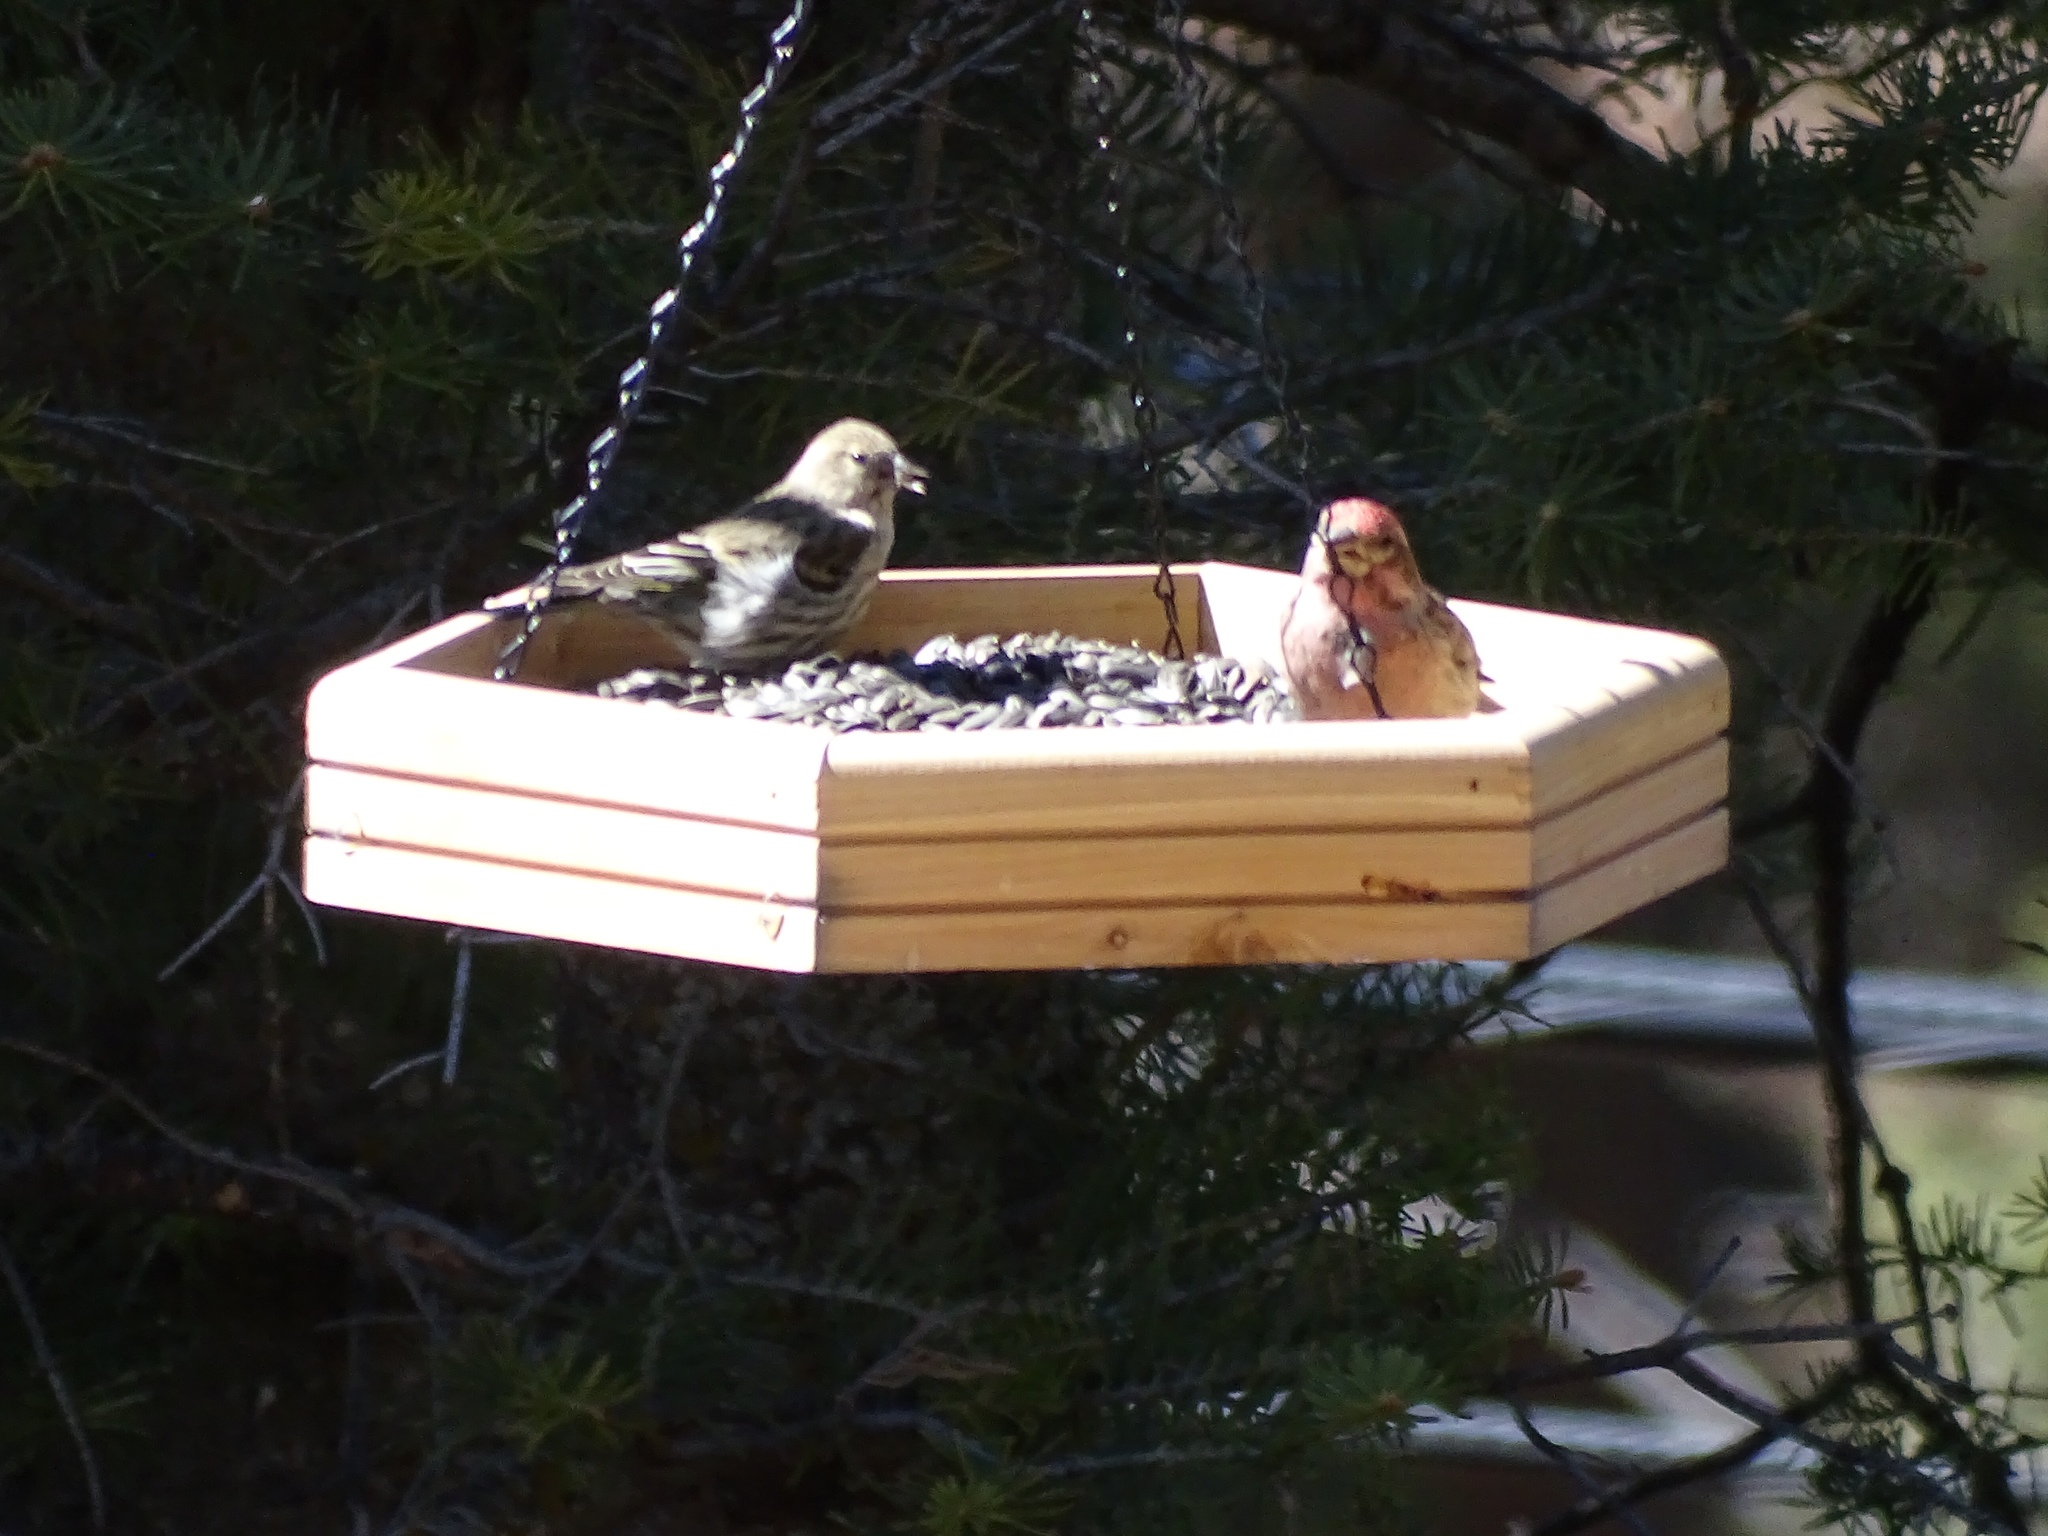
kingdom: Animalia
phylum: Chordata
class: Aves
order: Passeriformes
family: Fringillidae
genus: Haemorhous
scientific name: Haemorhous cassinii
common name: Cassin's finch
